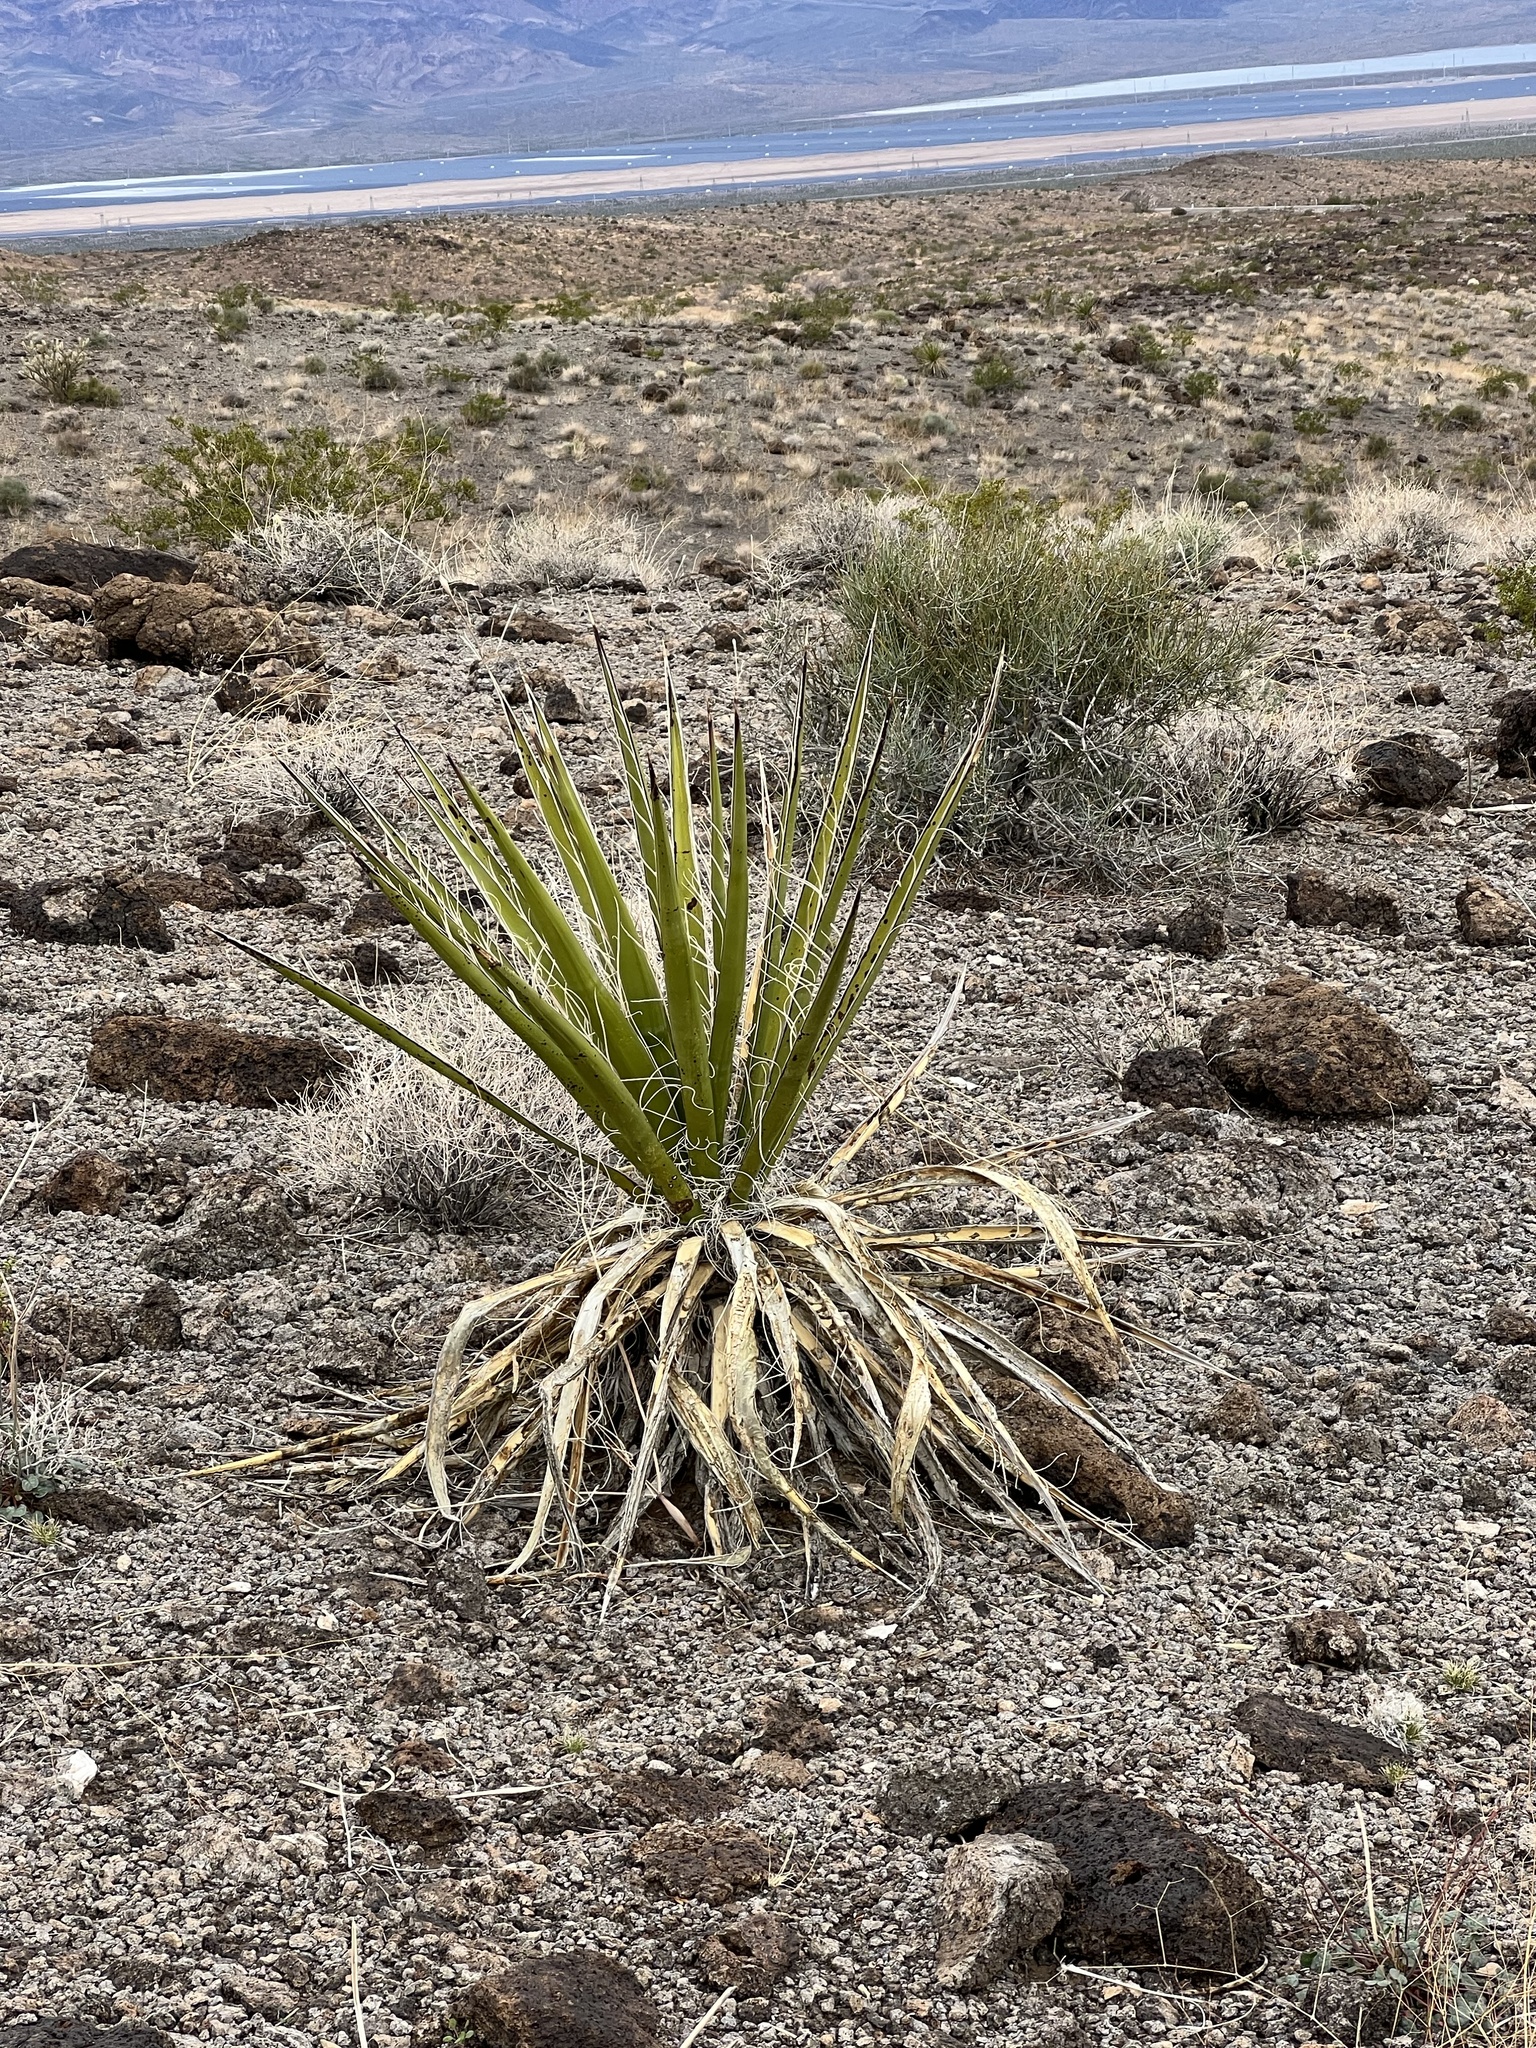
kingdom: Plantae
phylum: Tracheophyta
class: Liliopsida
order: Asparagales
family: Asparagaceae
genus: Yucca
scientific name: Yucca schidigera
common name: Mojave yucca
